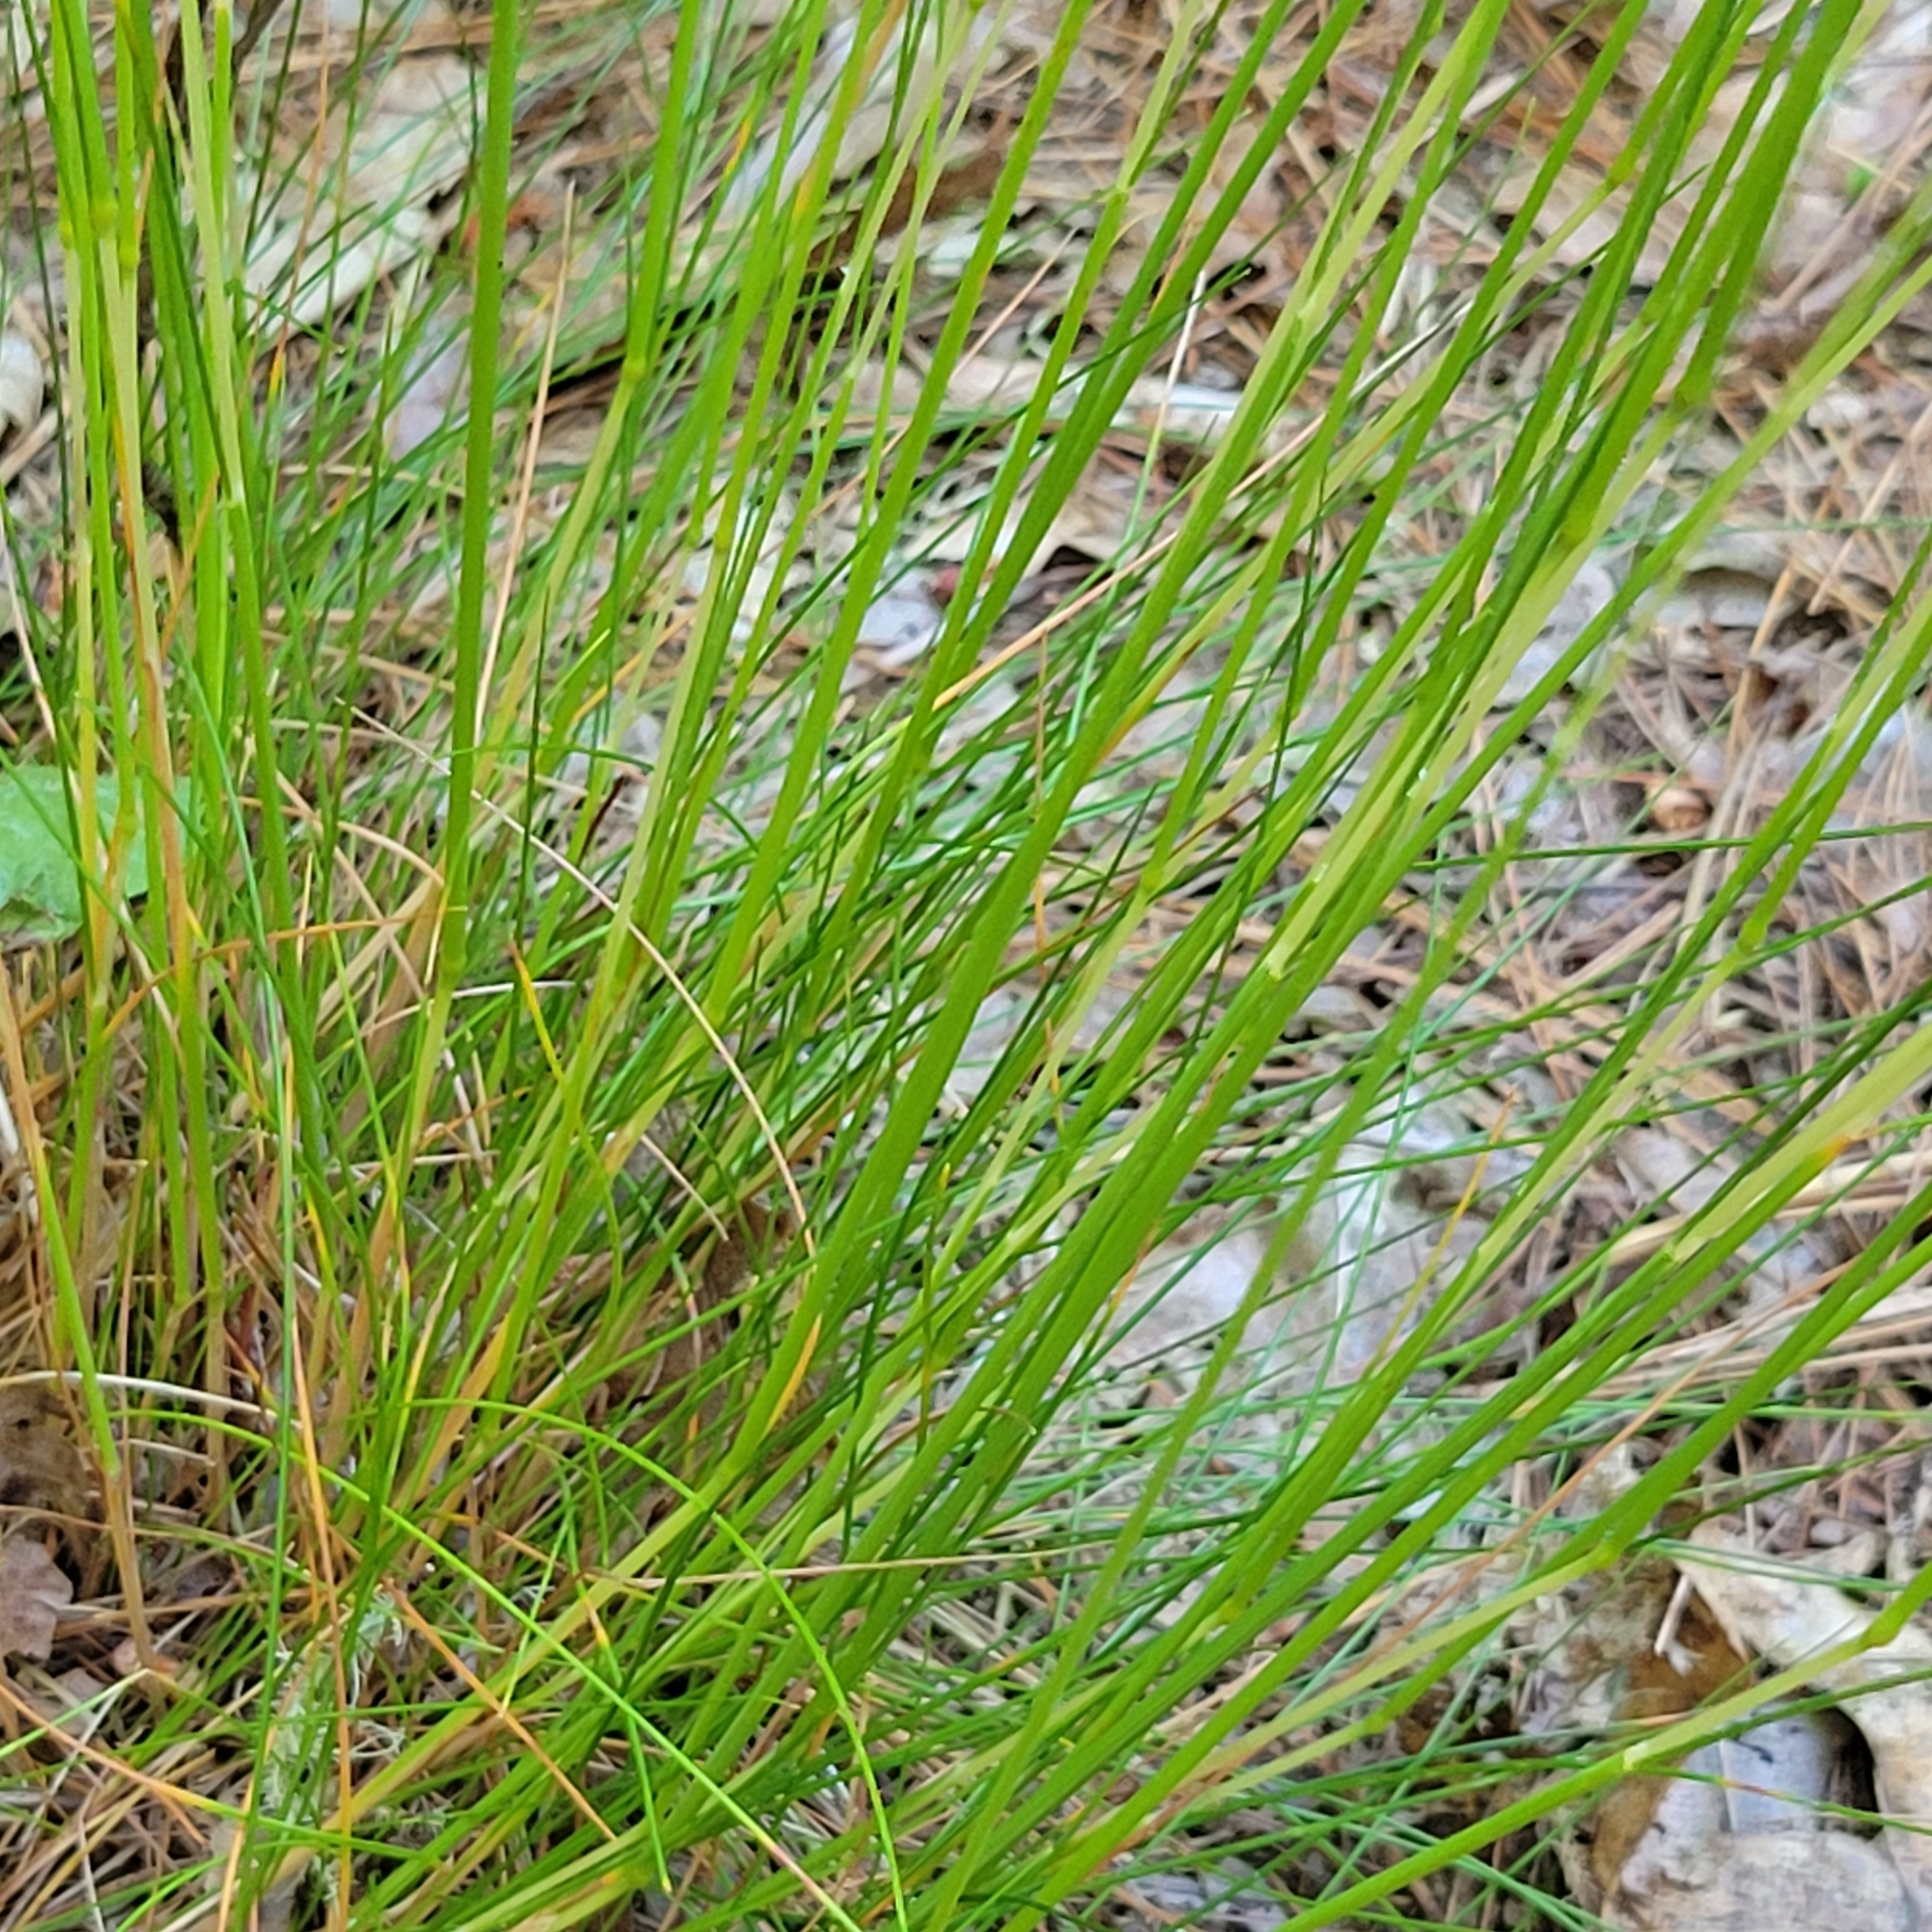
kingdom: Plantae
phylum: Tracheophyta
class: Liliopsida
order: Poales
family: Poaceae
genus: Avenella
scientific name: Avenella flexuosa
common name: Wavy hairgrass
